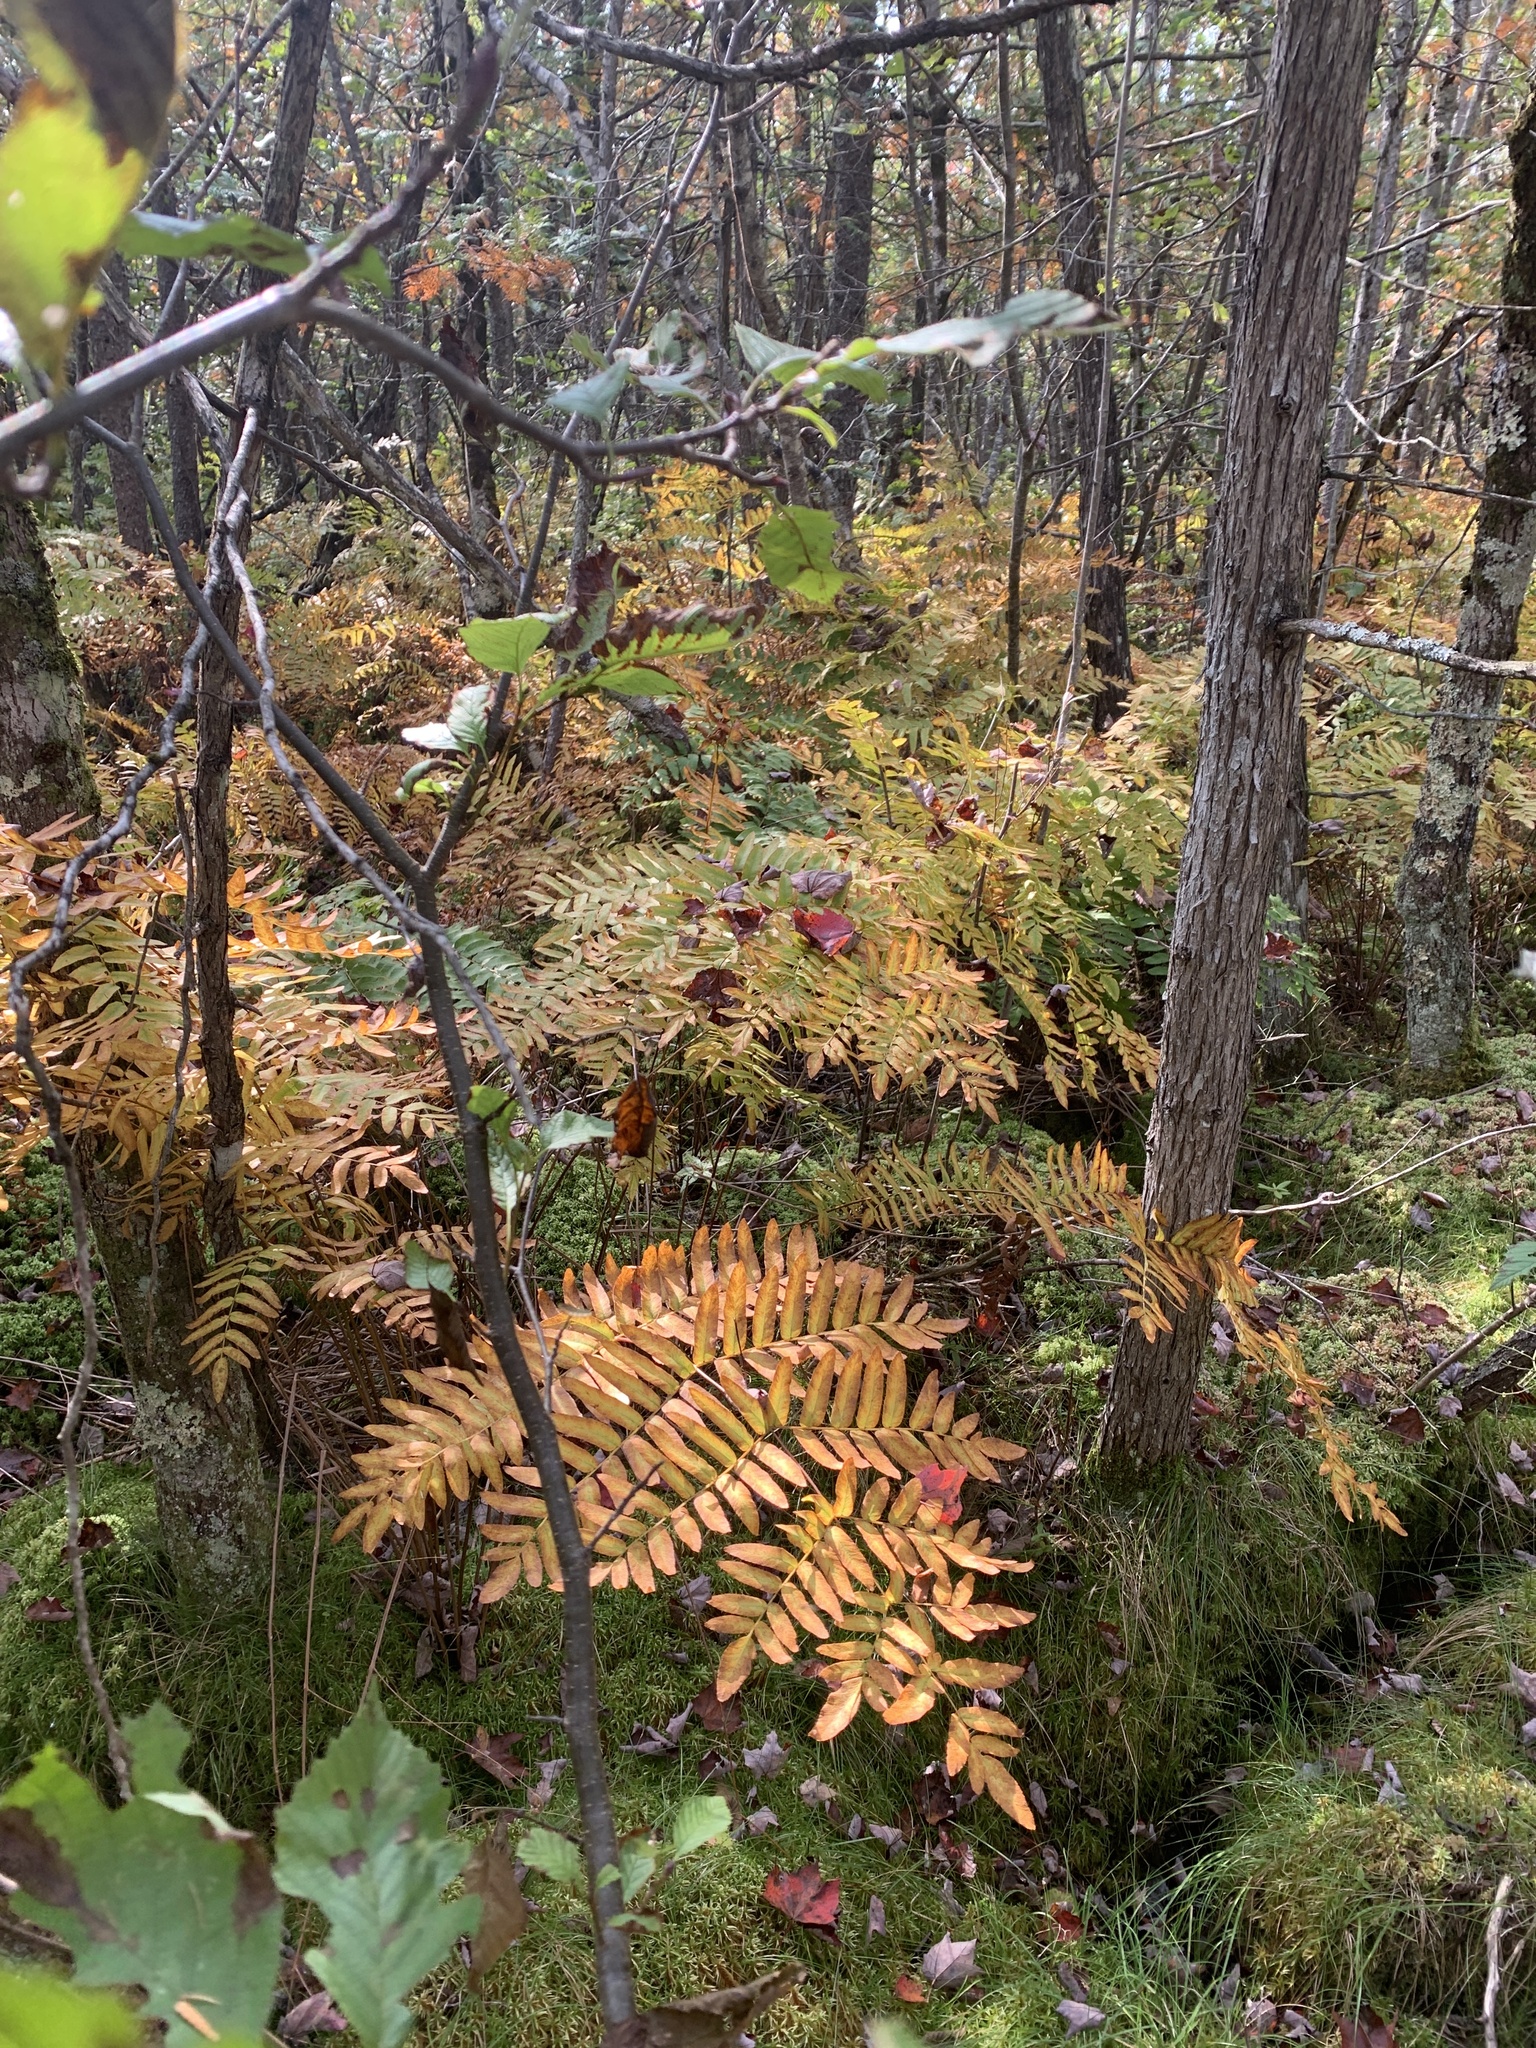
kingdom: Plantae
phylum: Tracheophyta
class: Polypodiopsida
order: Osmundales
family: Osmundaceae
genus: Osmunda
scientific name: Osmunda spectabilis
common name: American royal fern
